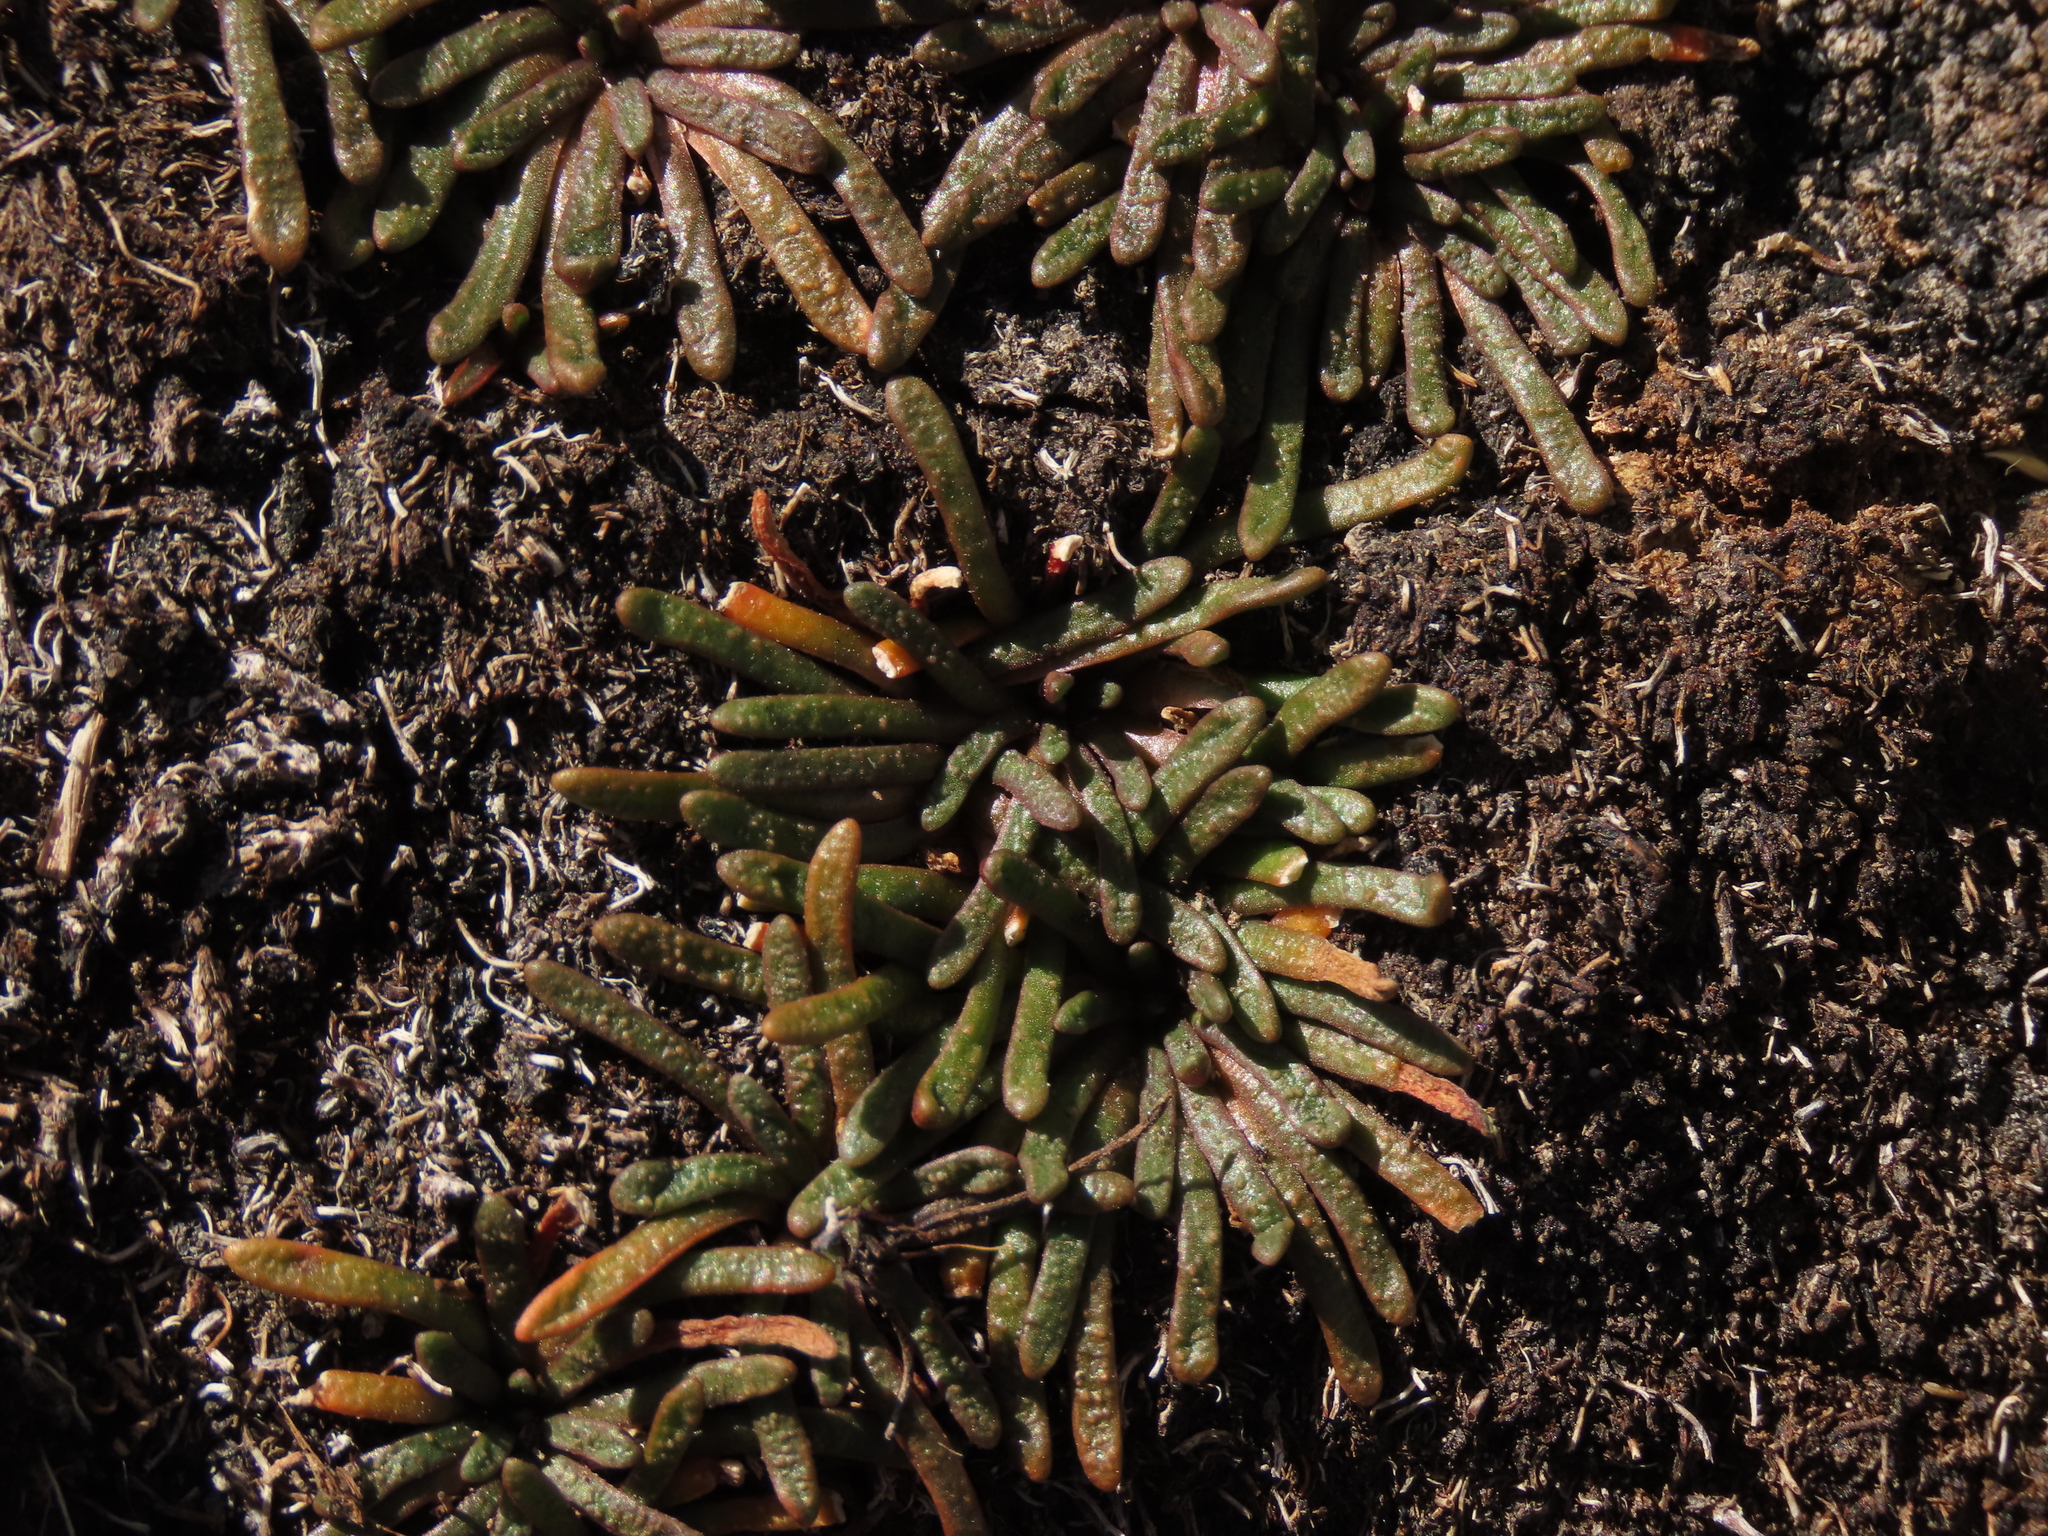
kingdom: Plantae
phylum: Tracheophyta
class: Magnoliopsida
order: Caryophyllales
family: Montiaceae
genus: Calandrinia
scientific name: Calandrinia compacta
